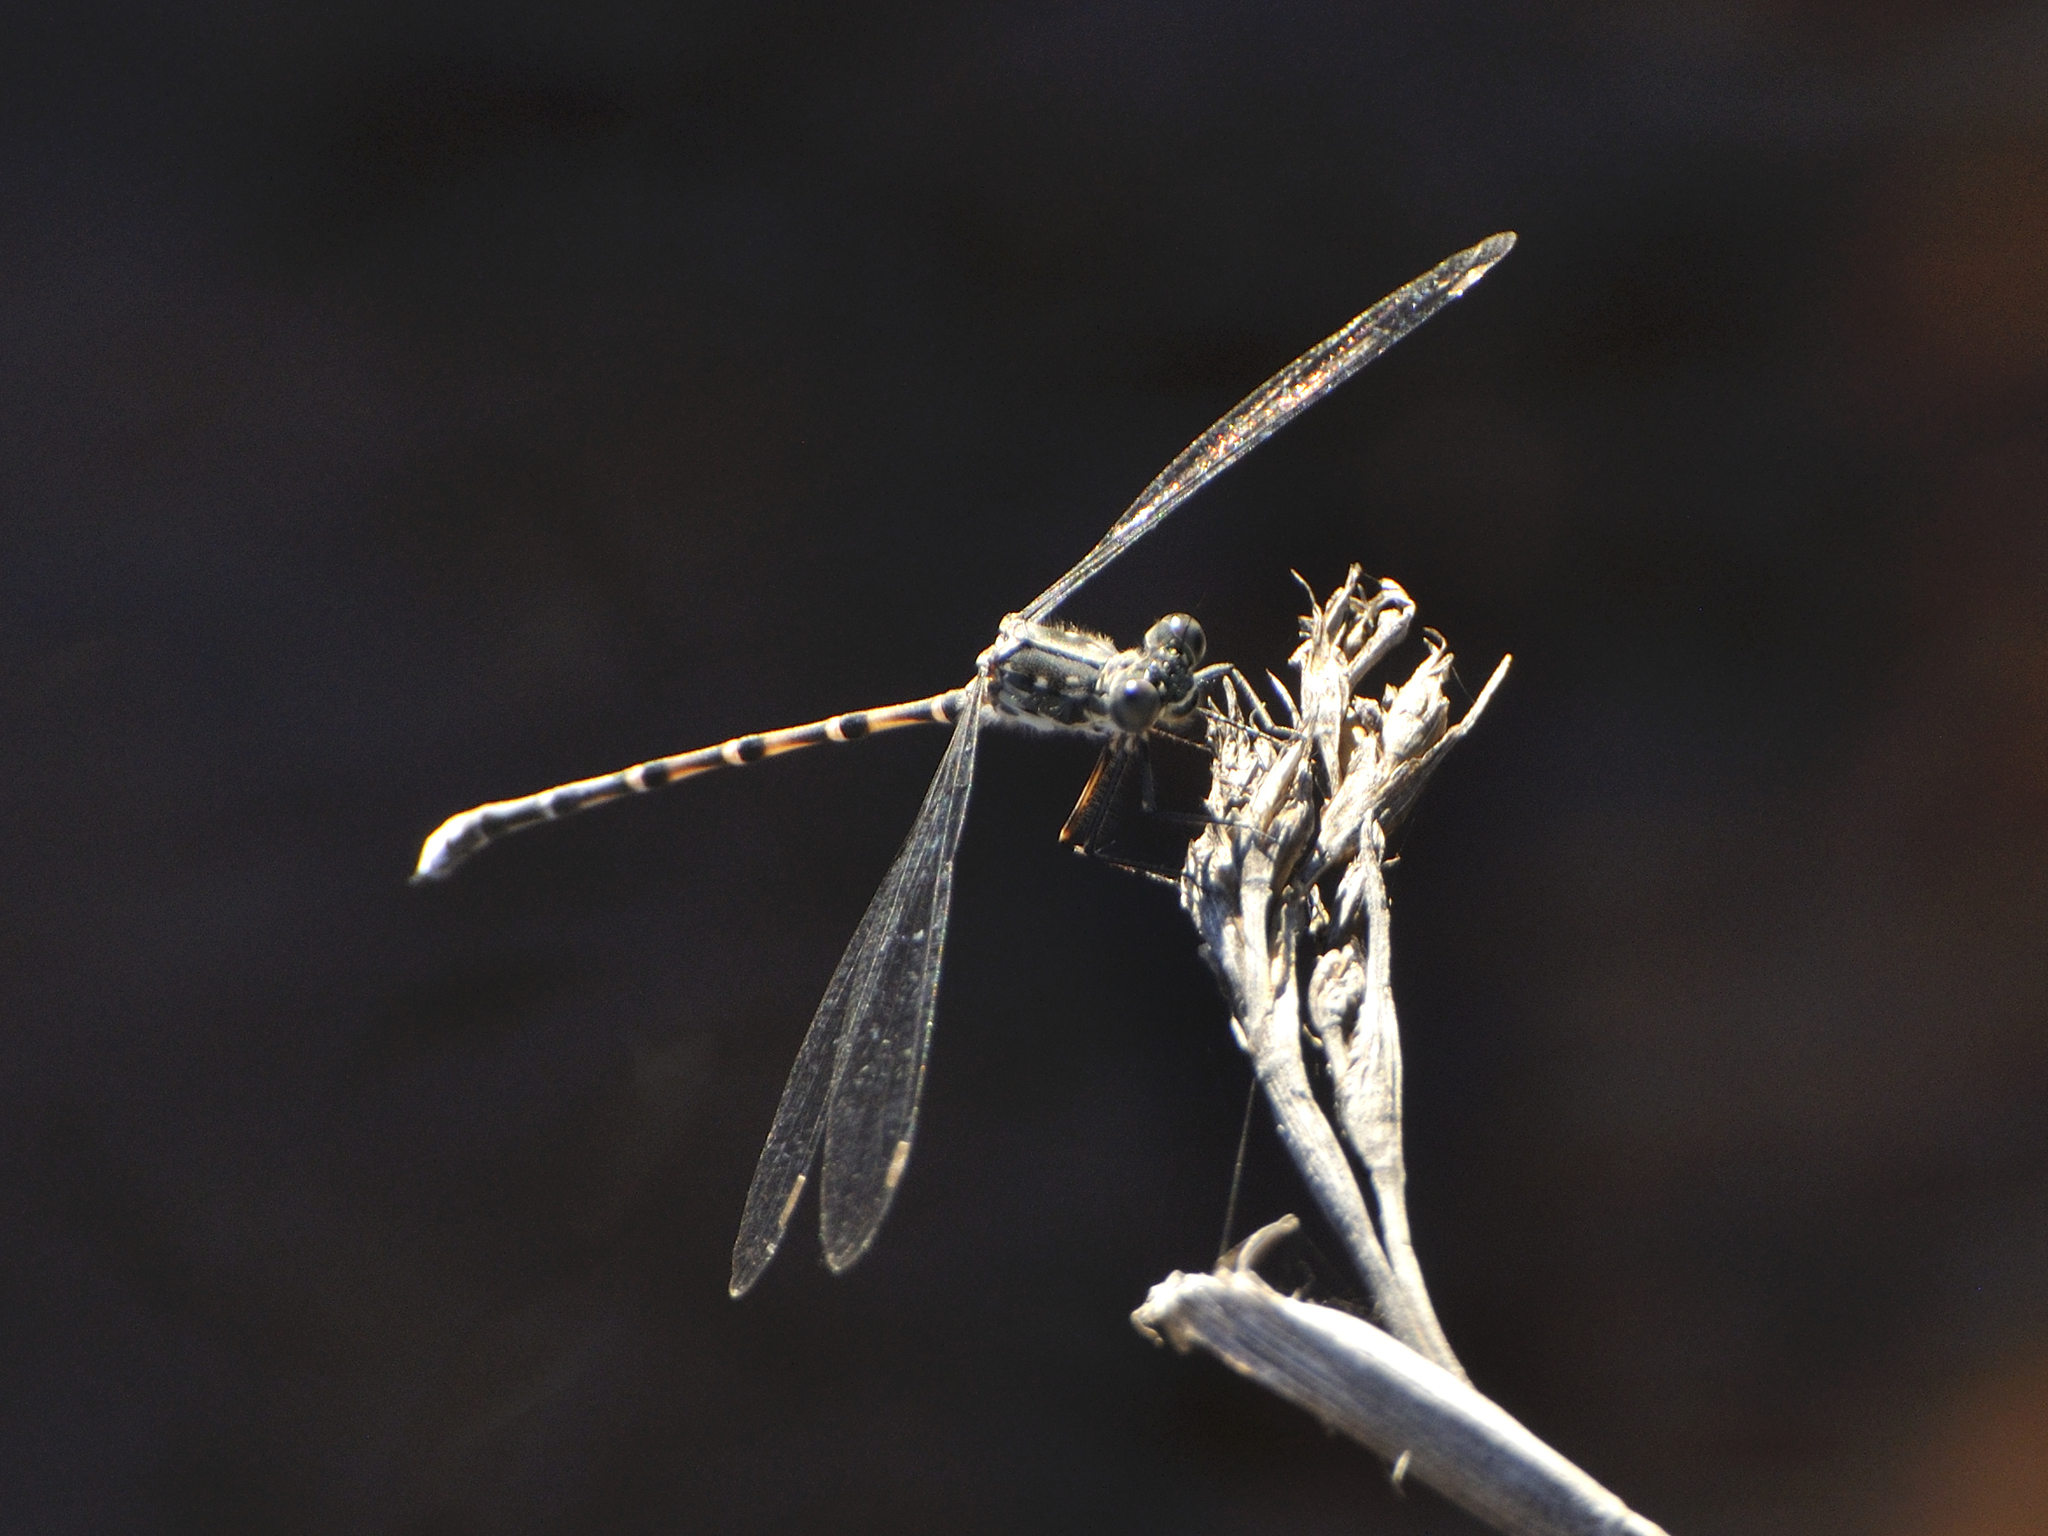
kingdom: Animalia
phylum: Arthropoda
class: Insecta
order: Odonata
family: Synlestidae
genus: Ecchlorolestes
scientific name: Ecchlorolestes peringueyi
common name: Marbled malachite
